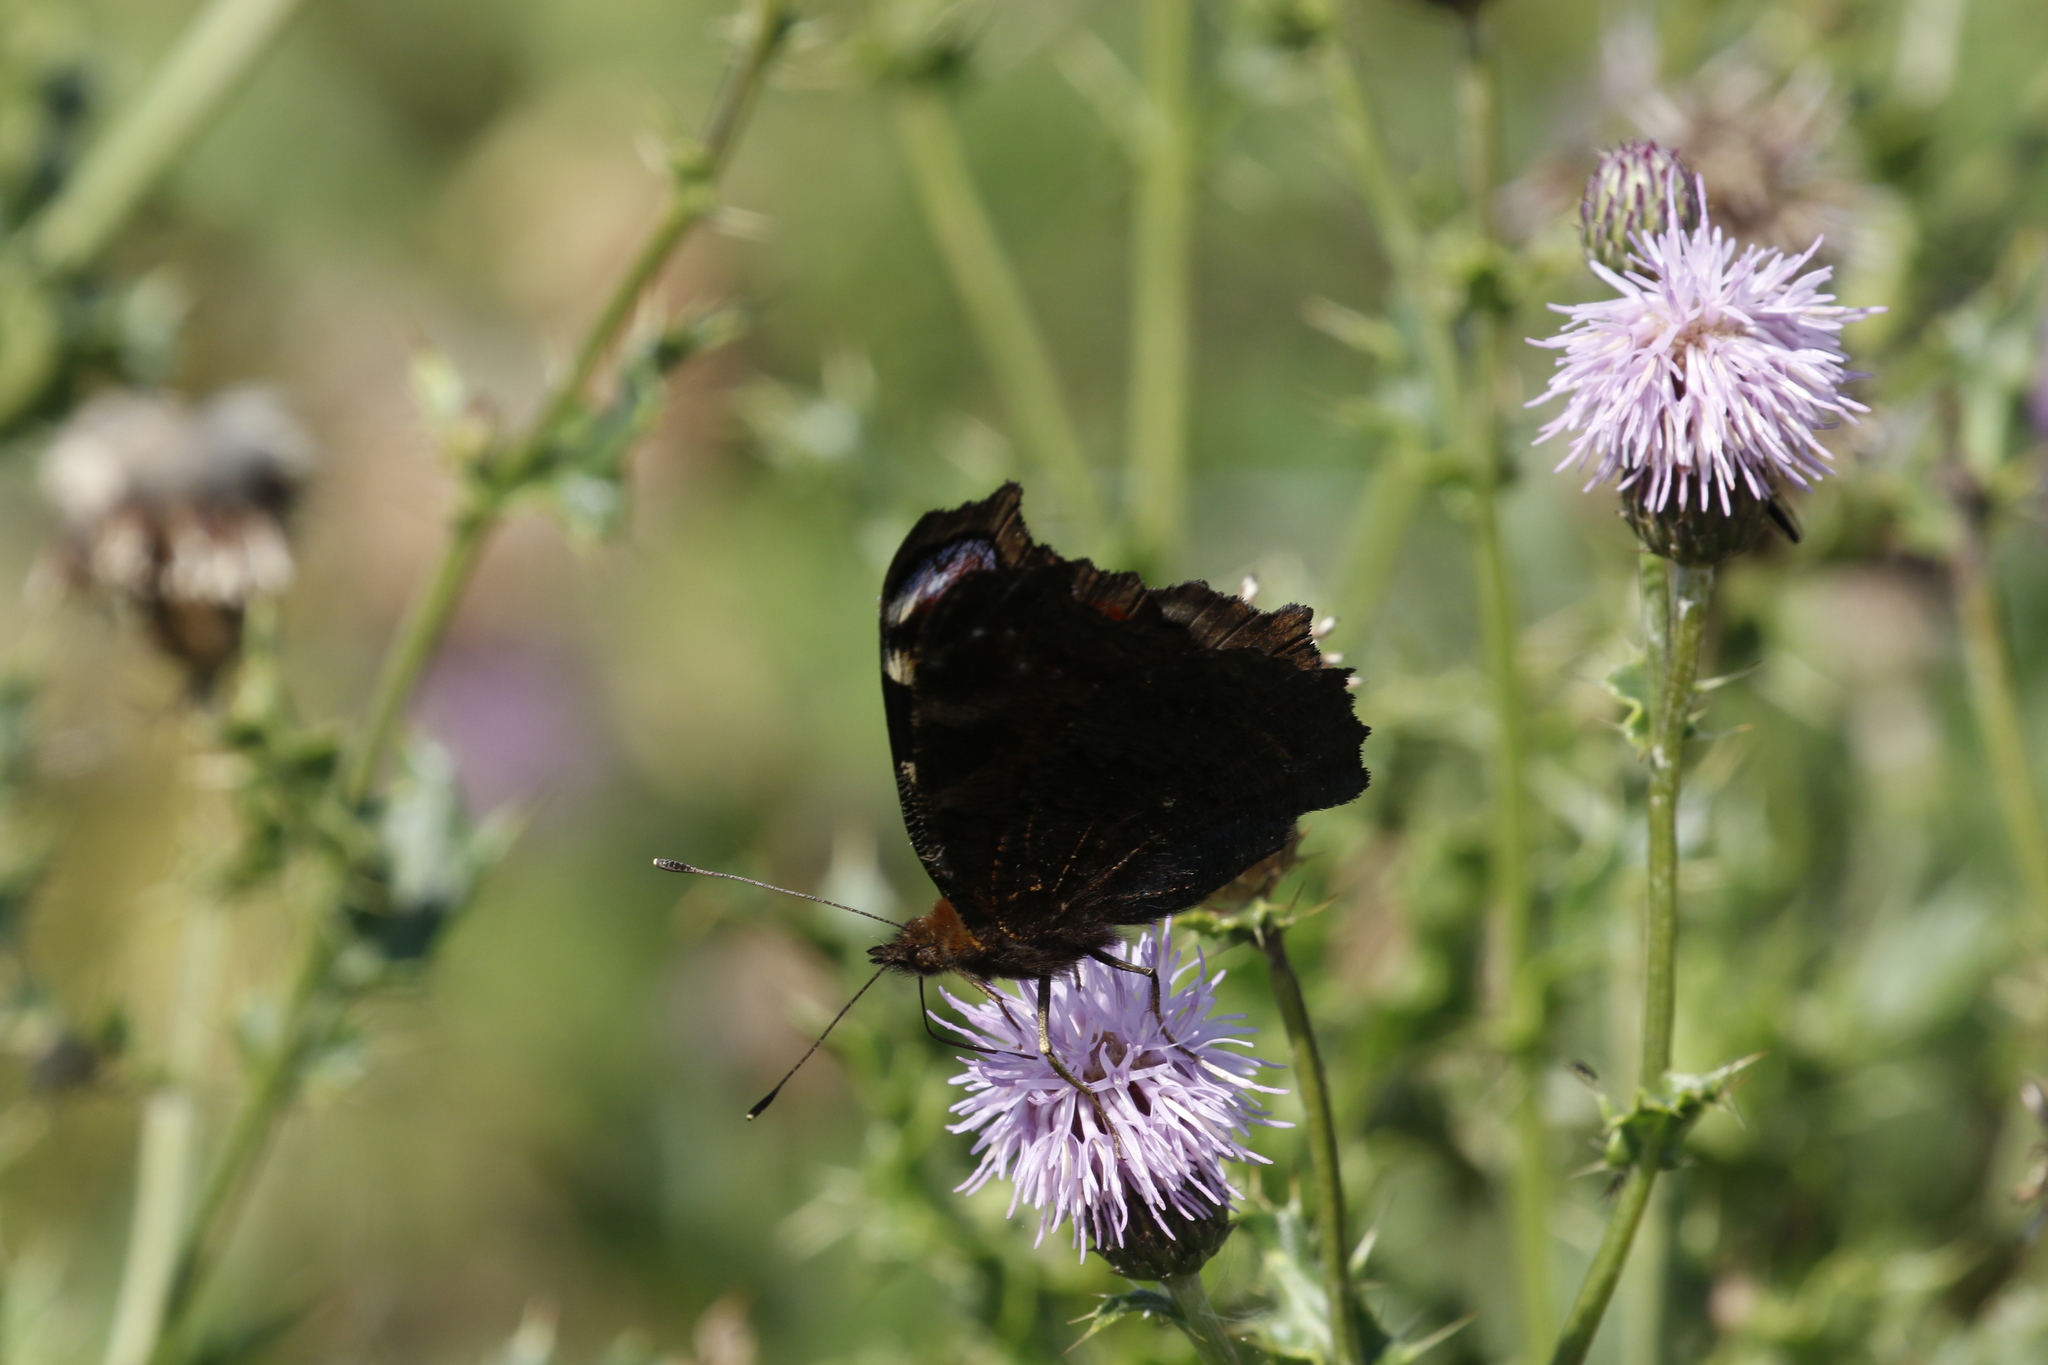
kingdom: Animalia
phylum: Arthropoda
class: Insecta
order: Lepidoptera
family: Nymphalidae
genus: Aglais
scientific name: Aglais io
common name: Peacock
